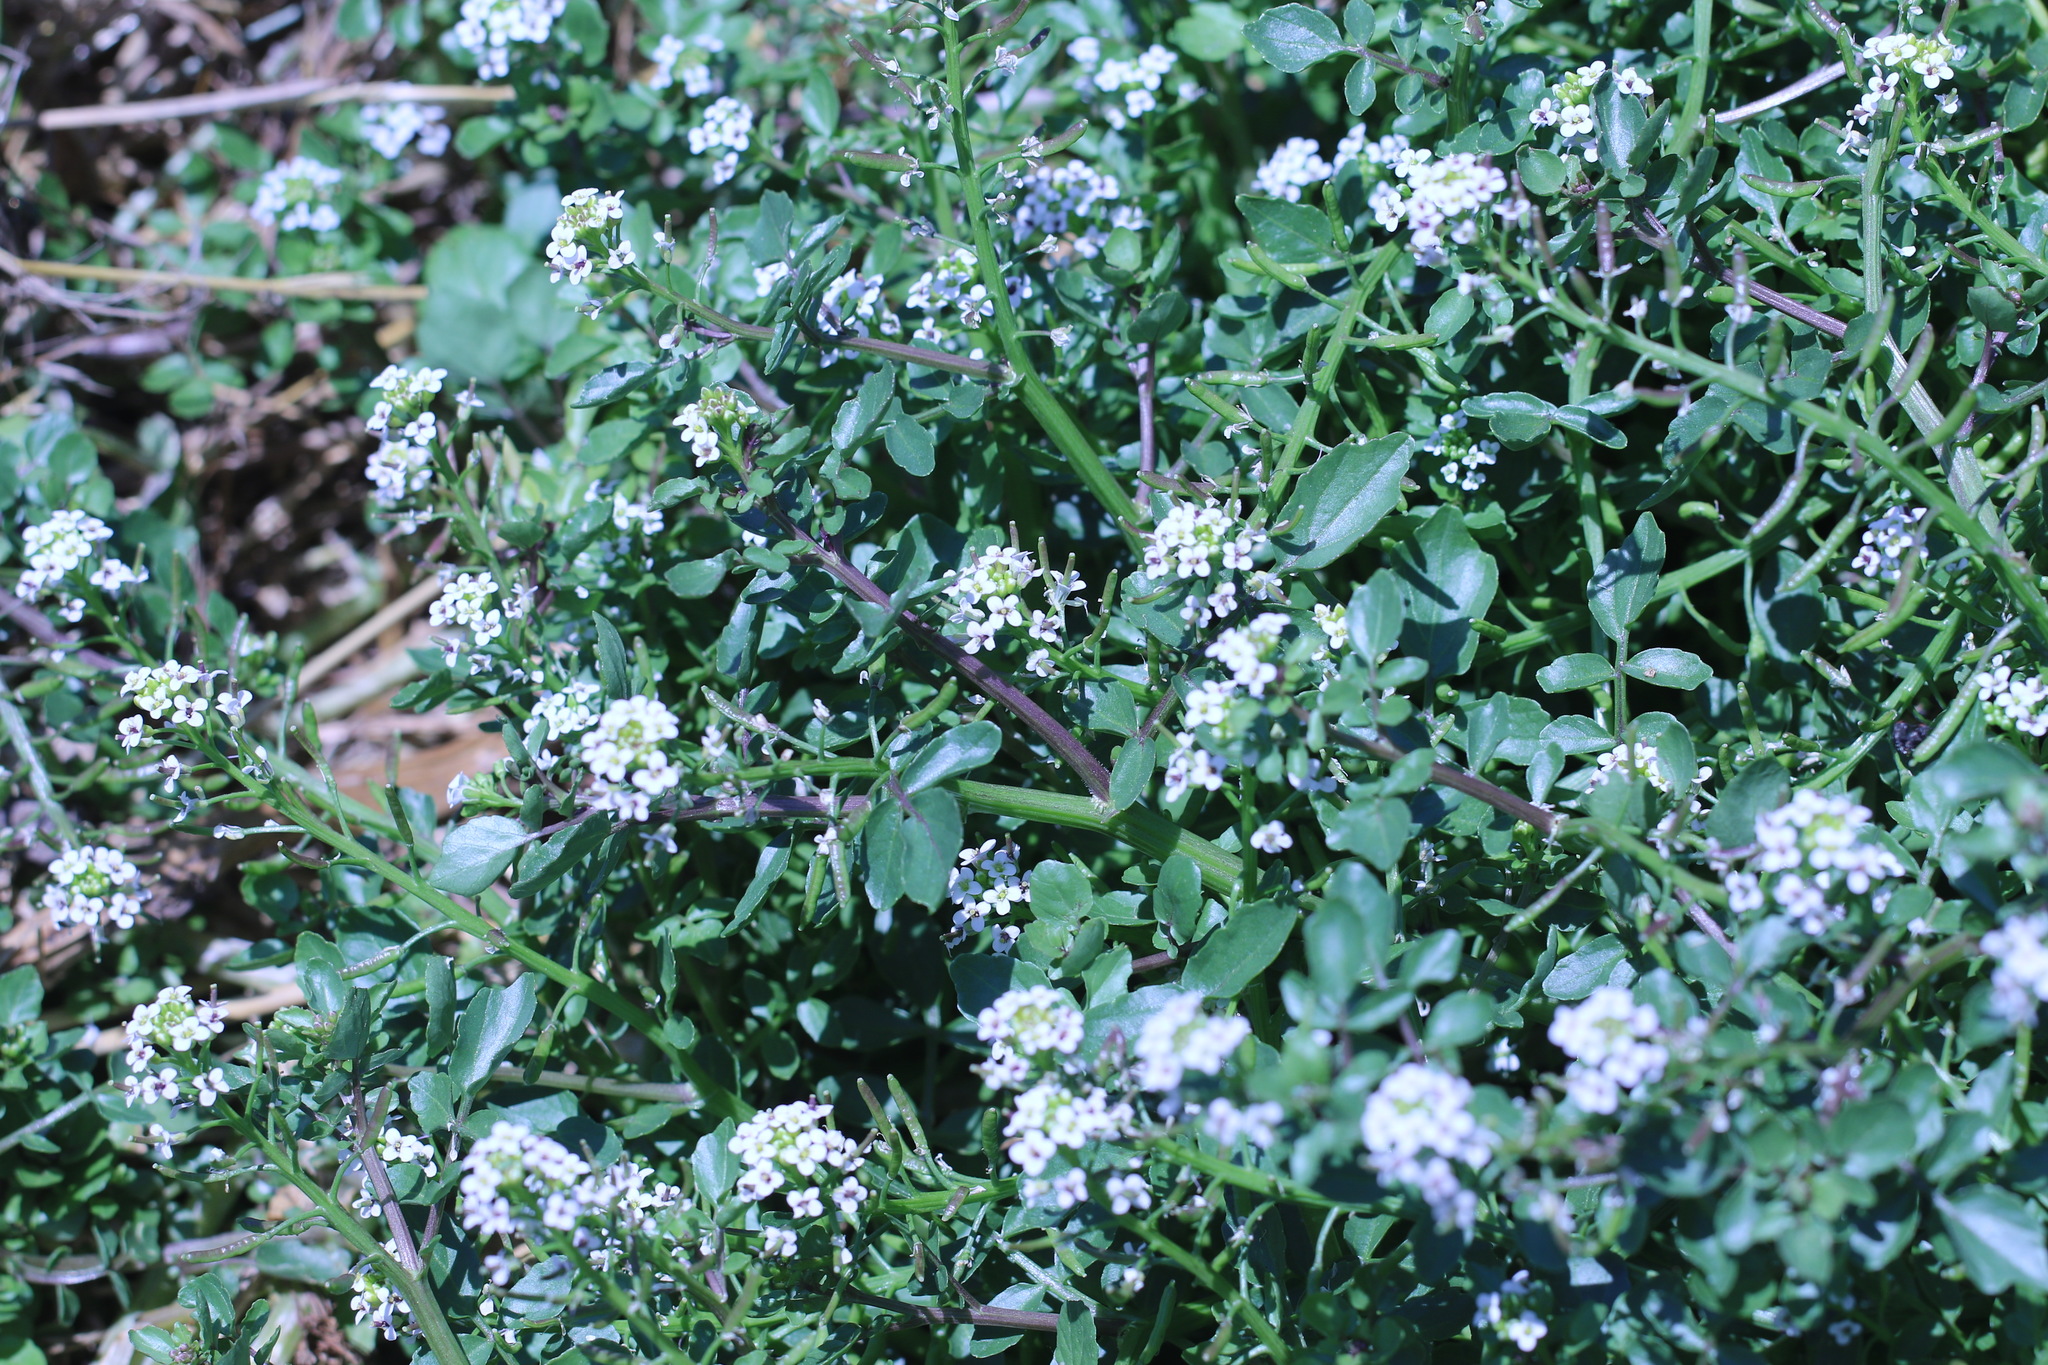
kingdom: Plantae
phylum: Tracheophyta
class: Magnoliopsida
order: Brassicales
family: Brassicaceae
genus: Nasturtium
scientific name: Nasturtium officinale
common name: Watercress
